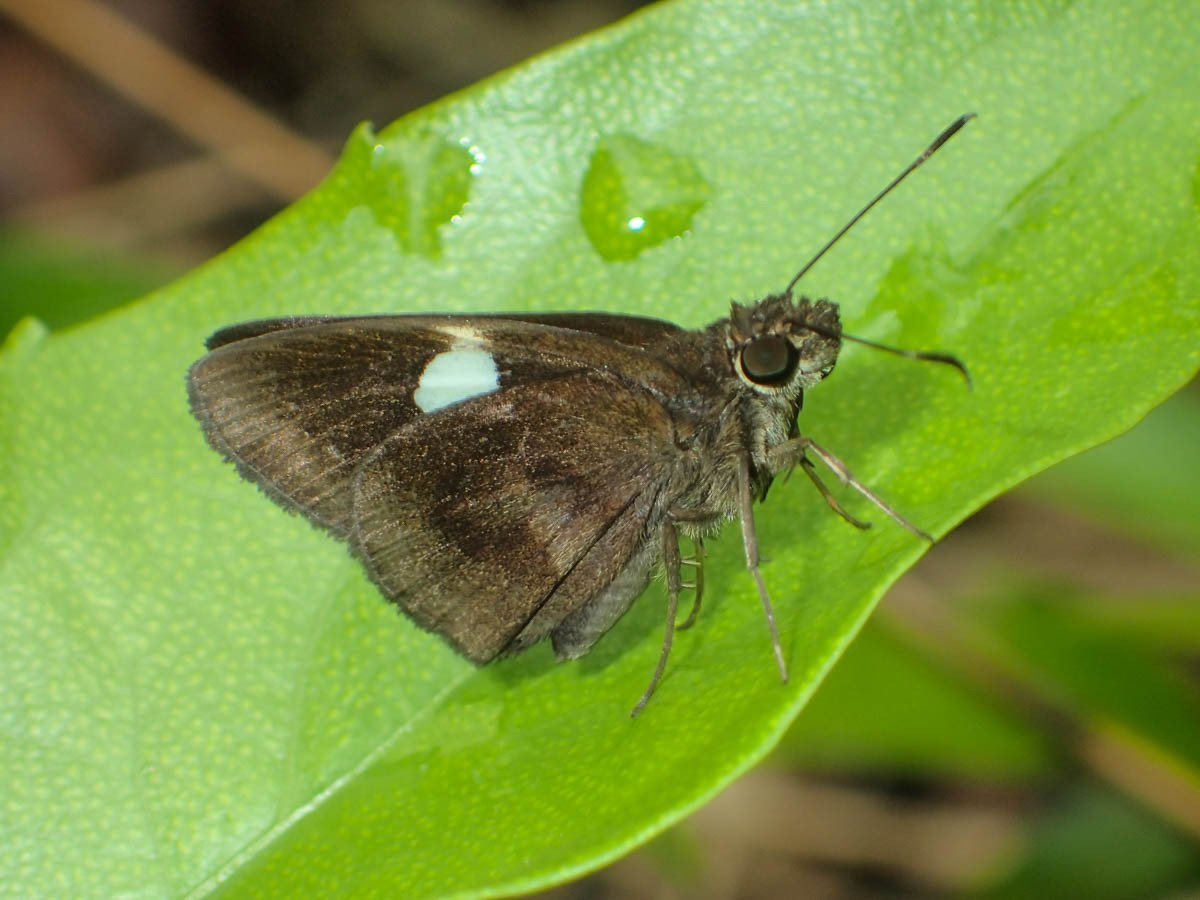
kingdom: Animalia
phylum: Arthropoda
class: Insecta
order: Lepidoptera
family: Hesperiidae
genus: Notocrypta
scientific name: Notocrypta paralysos
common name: Common banded demon
